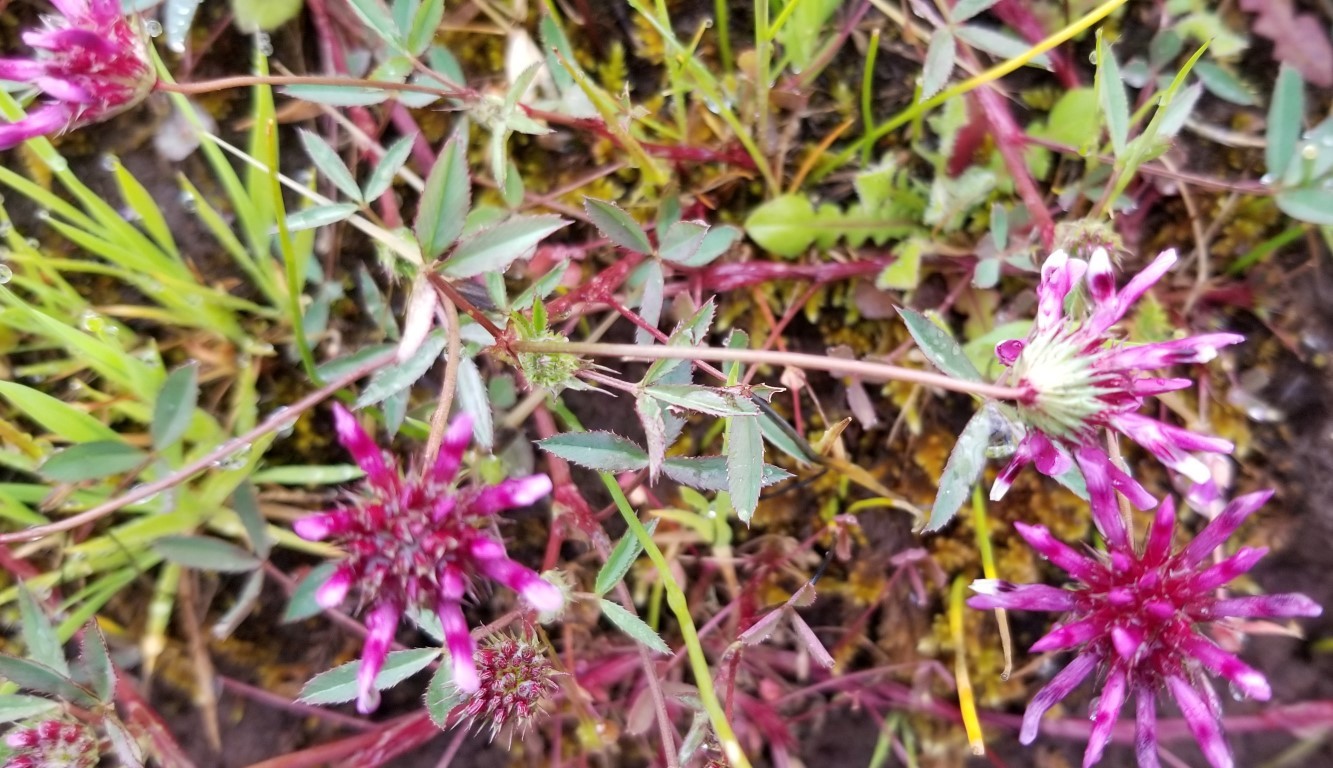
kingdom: Plantae
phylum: Tracheophyta
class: Magnoliopsida
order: Fabales
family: Fabaceae
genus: Trifolium
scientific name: Trifolium willdenovii
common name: Tomcat clover
